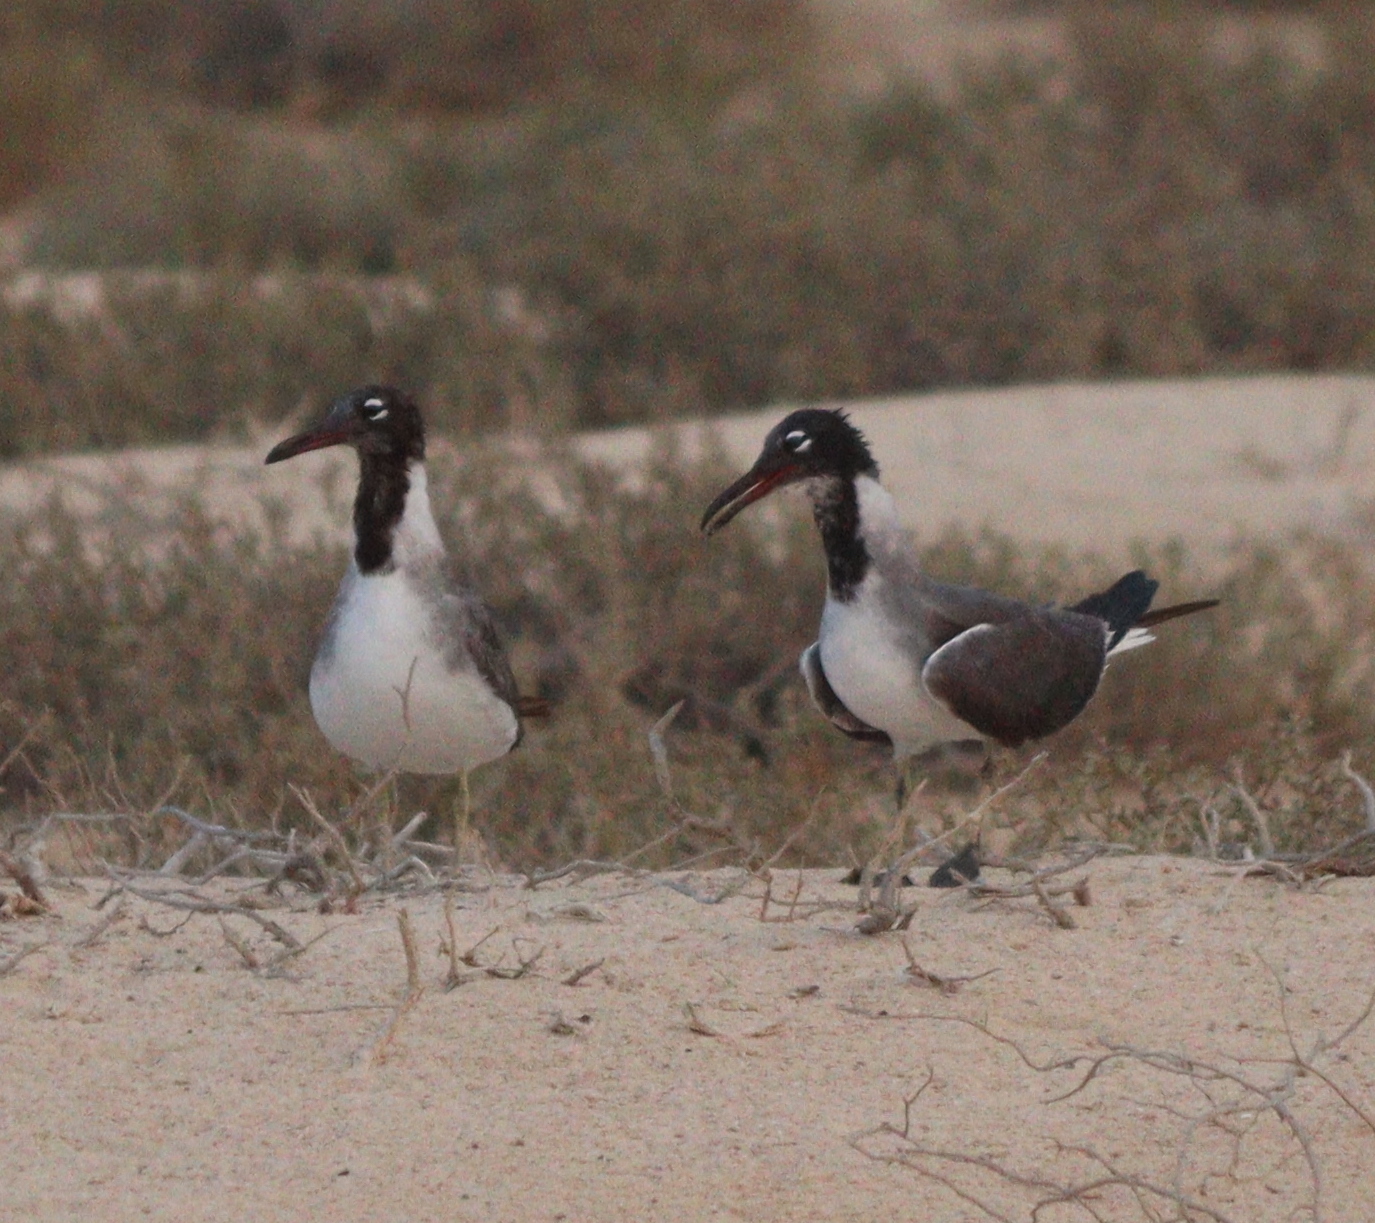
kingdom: Animalia
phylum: Chordata
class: Aves
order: Charadriiformes
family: Laridae
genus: Ichthyaetus
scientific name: Ichthyaetus leucophthalmus
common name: White-eyed gull
